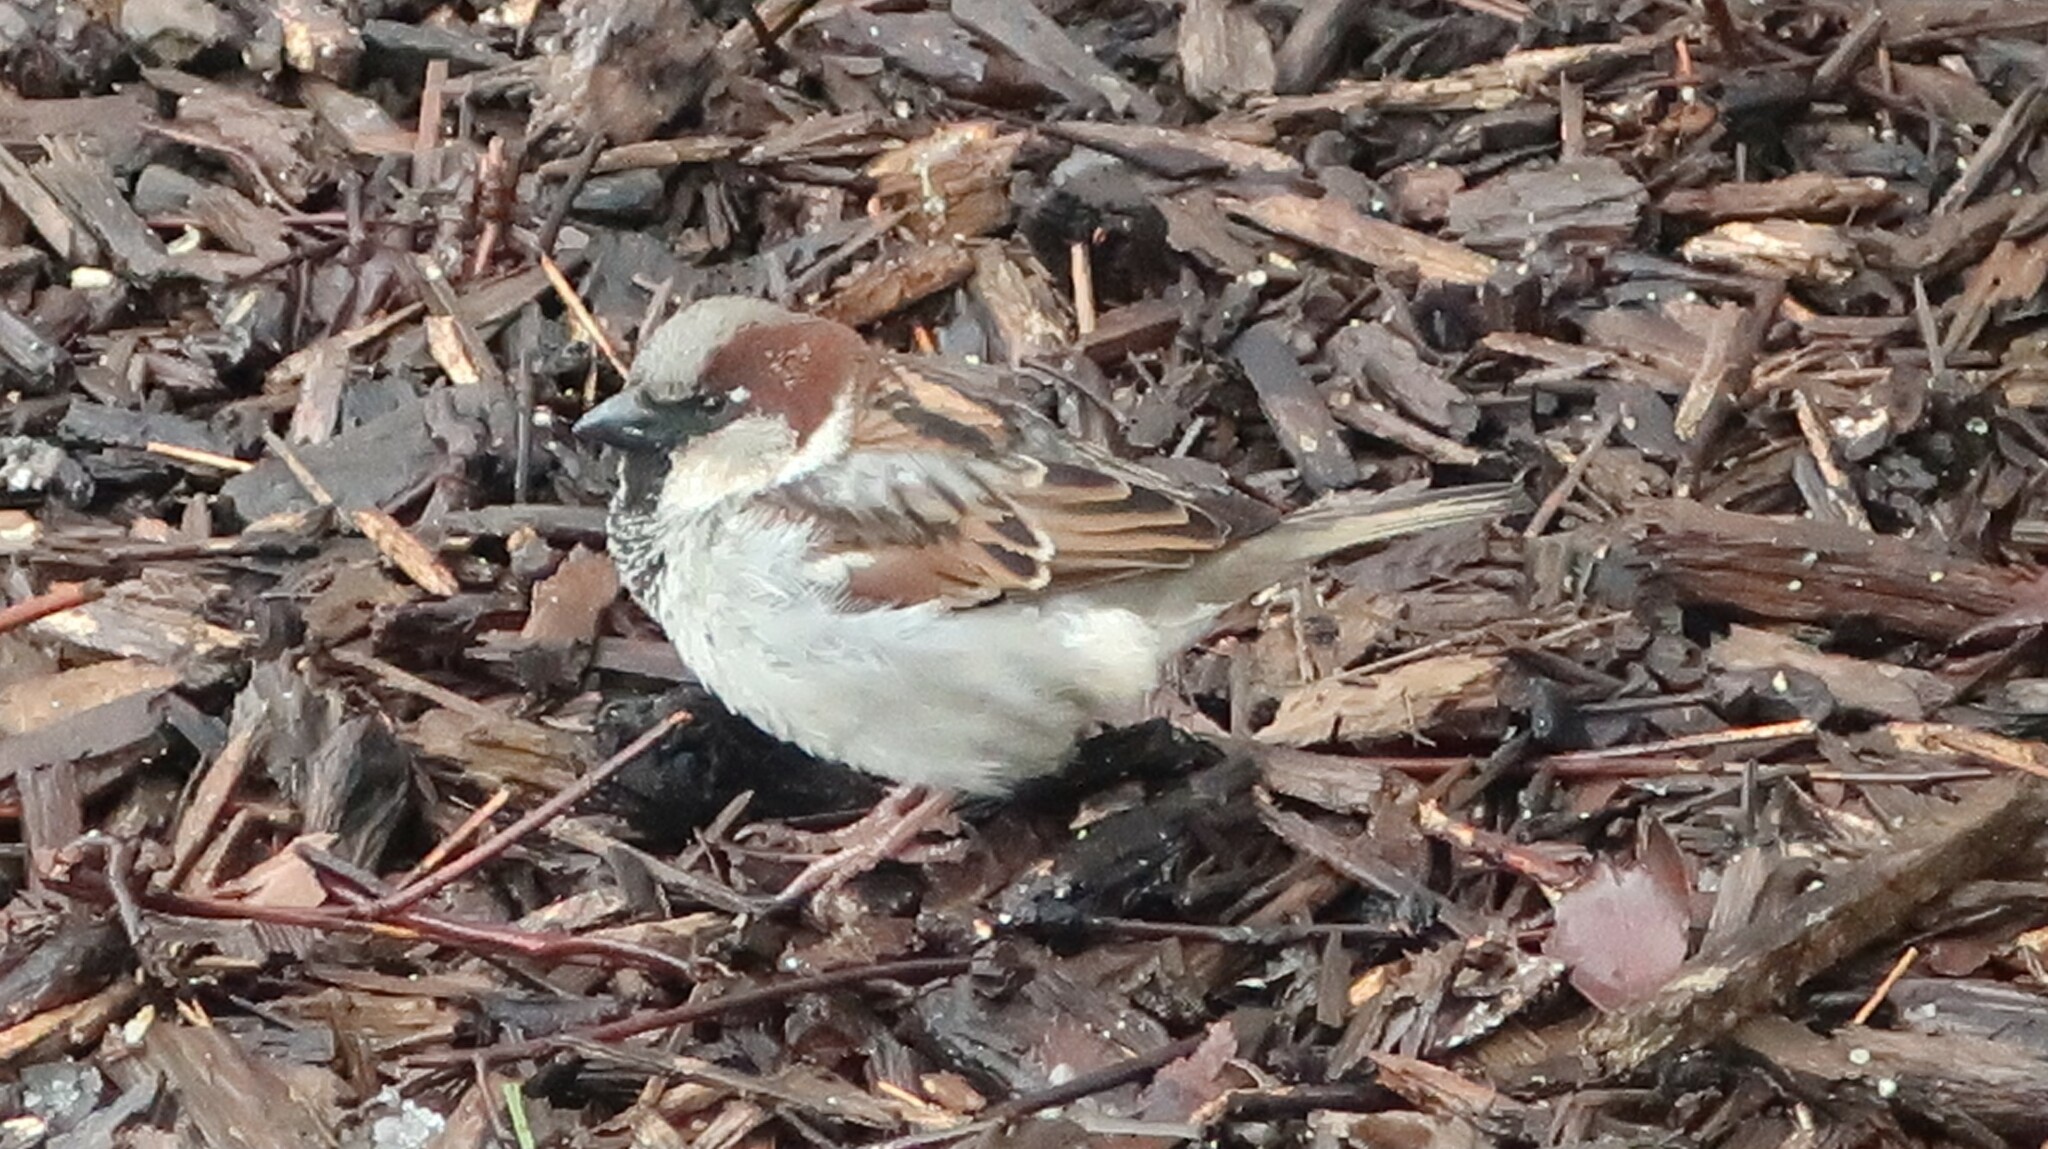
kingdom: Animalia
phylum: Chordata
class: Aves
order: Passeriformes
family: Passeridae
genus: Passer
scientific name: Passer domesticus
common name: House sparrow
